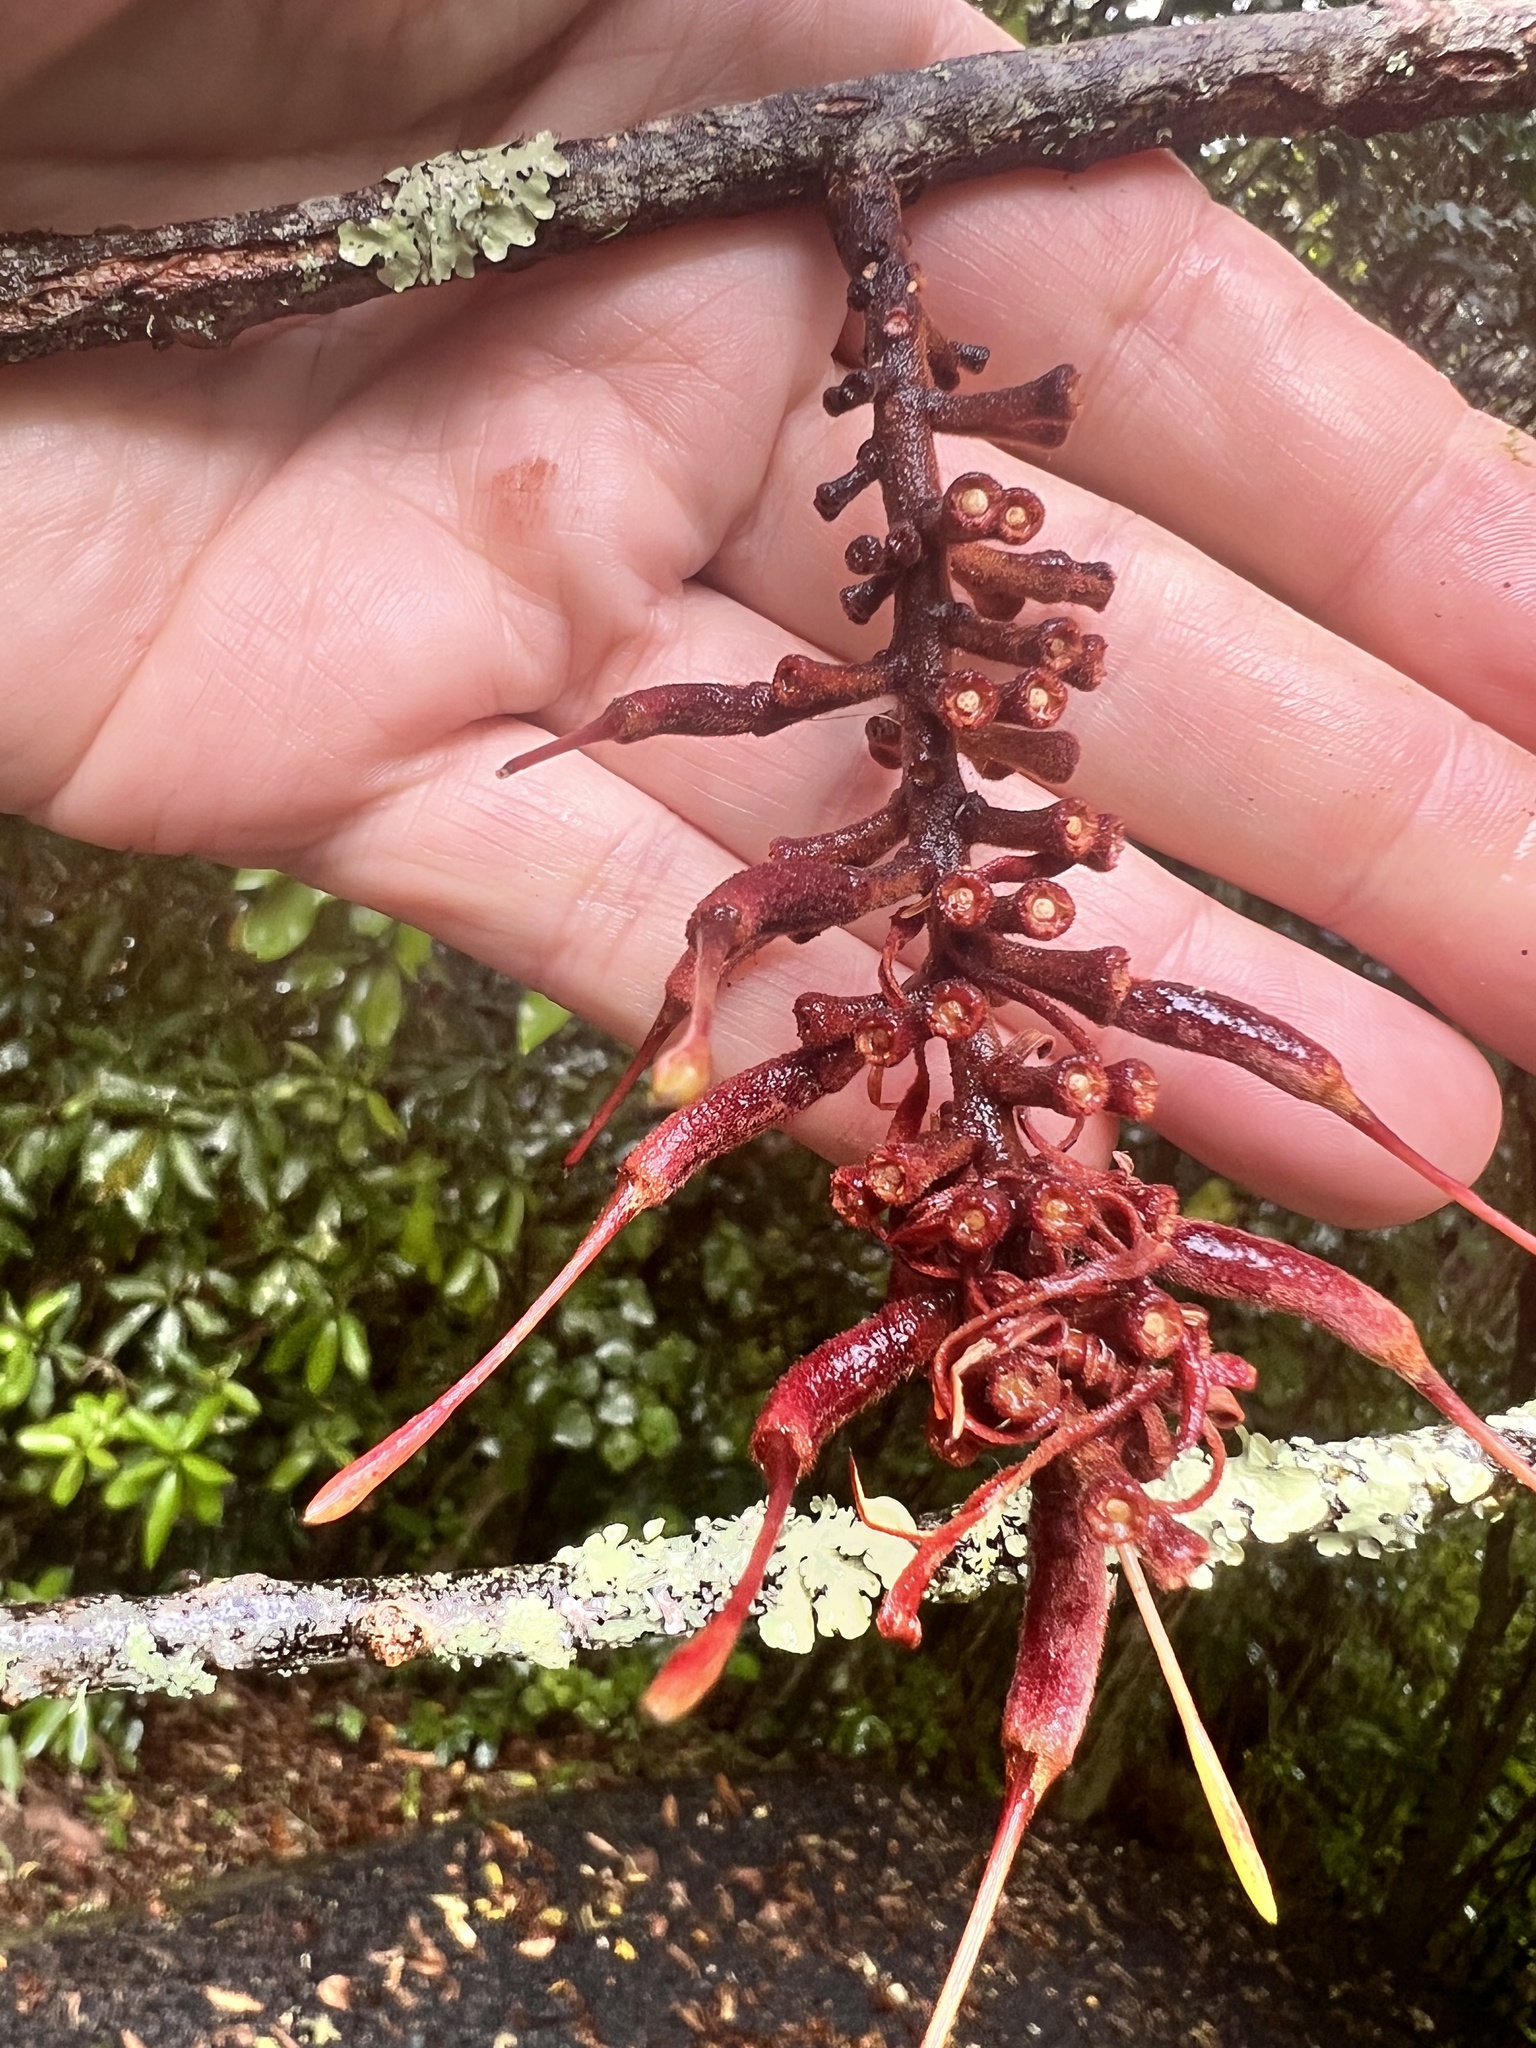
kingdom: Plantae
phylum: Tracheophyta
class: Magnoliopsida
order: Proteales
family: Proteaceae
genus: Knightia
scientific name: Knightia excelsa
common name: New zealand-honeysuckle
